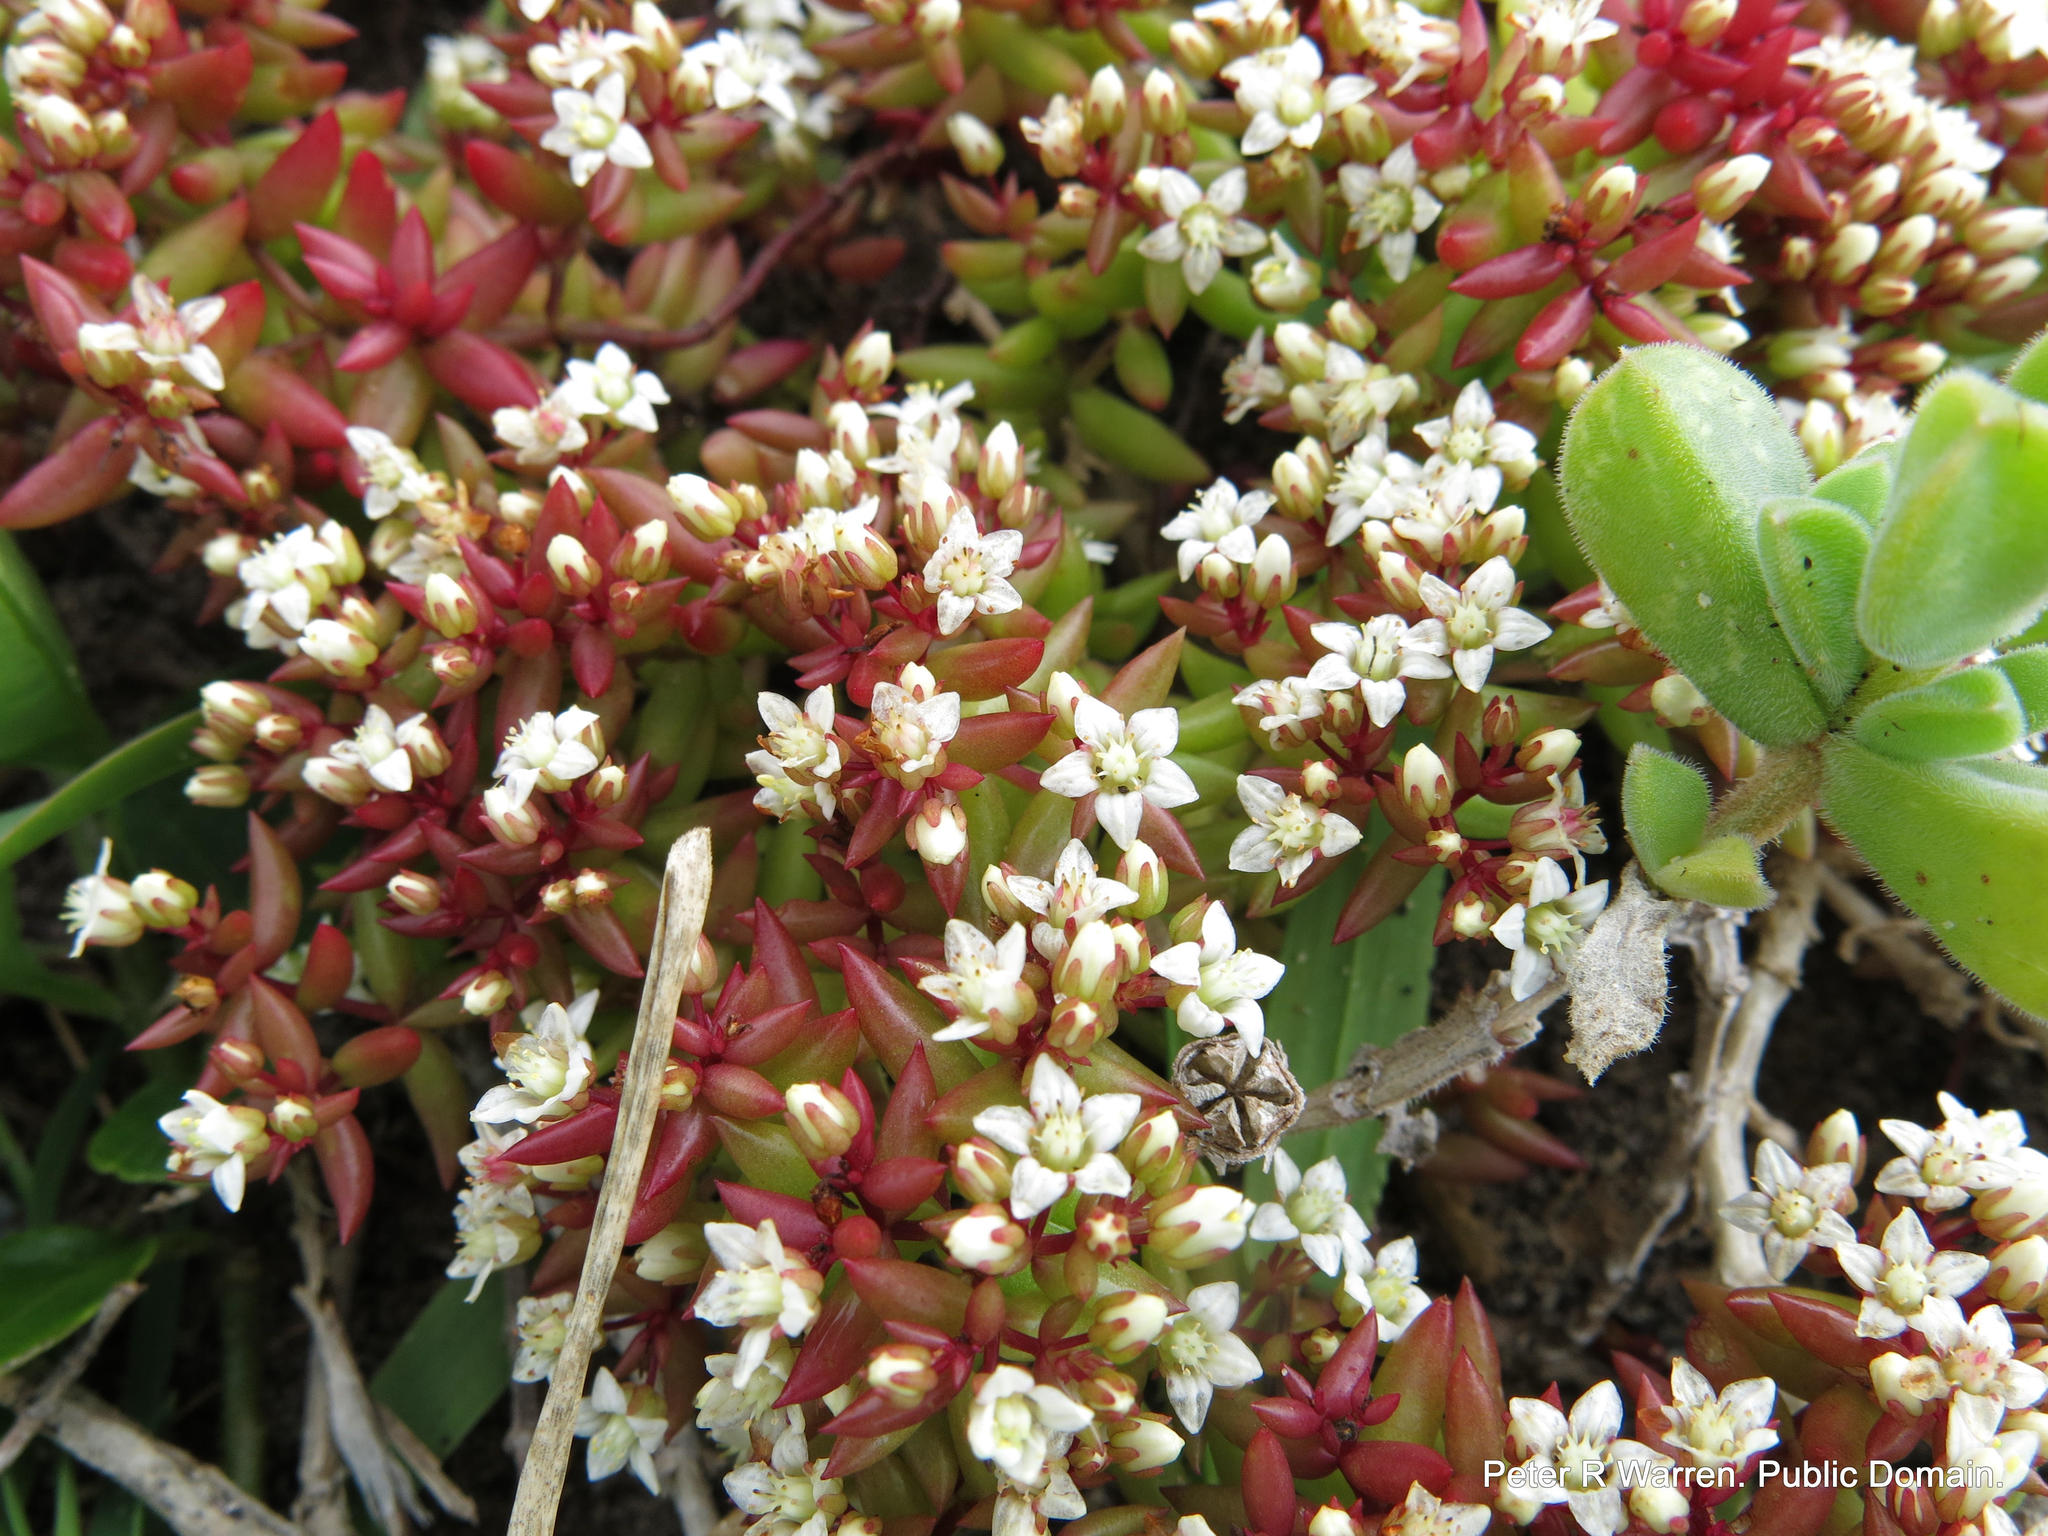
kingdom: Plantae
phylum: Tracheophyta
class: Magnoliopsida
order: Saxifragales
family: Crassulaceae
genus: Crassula
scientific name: Crassula expansa
